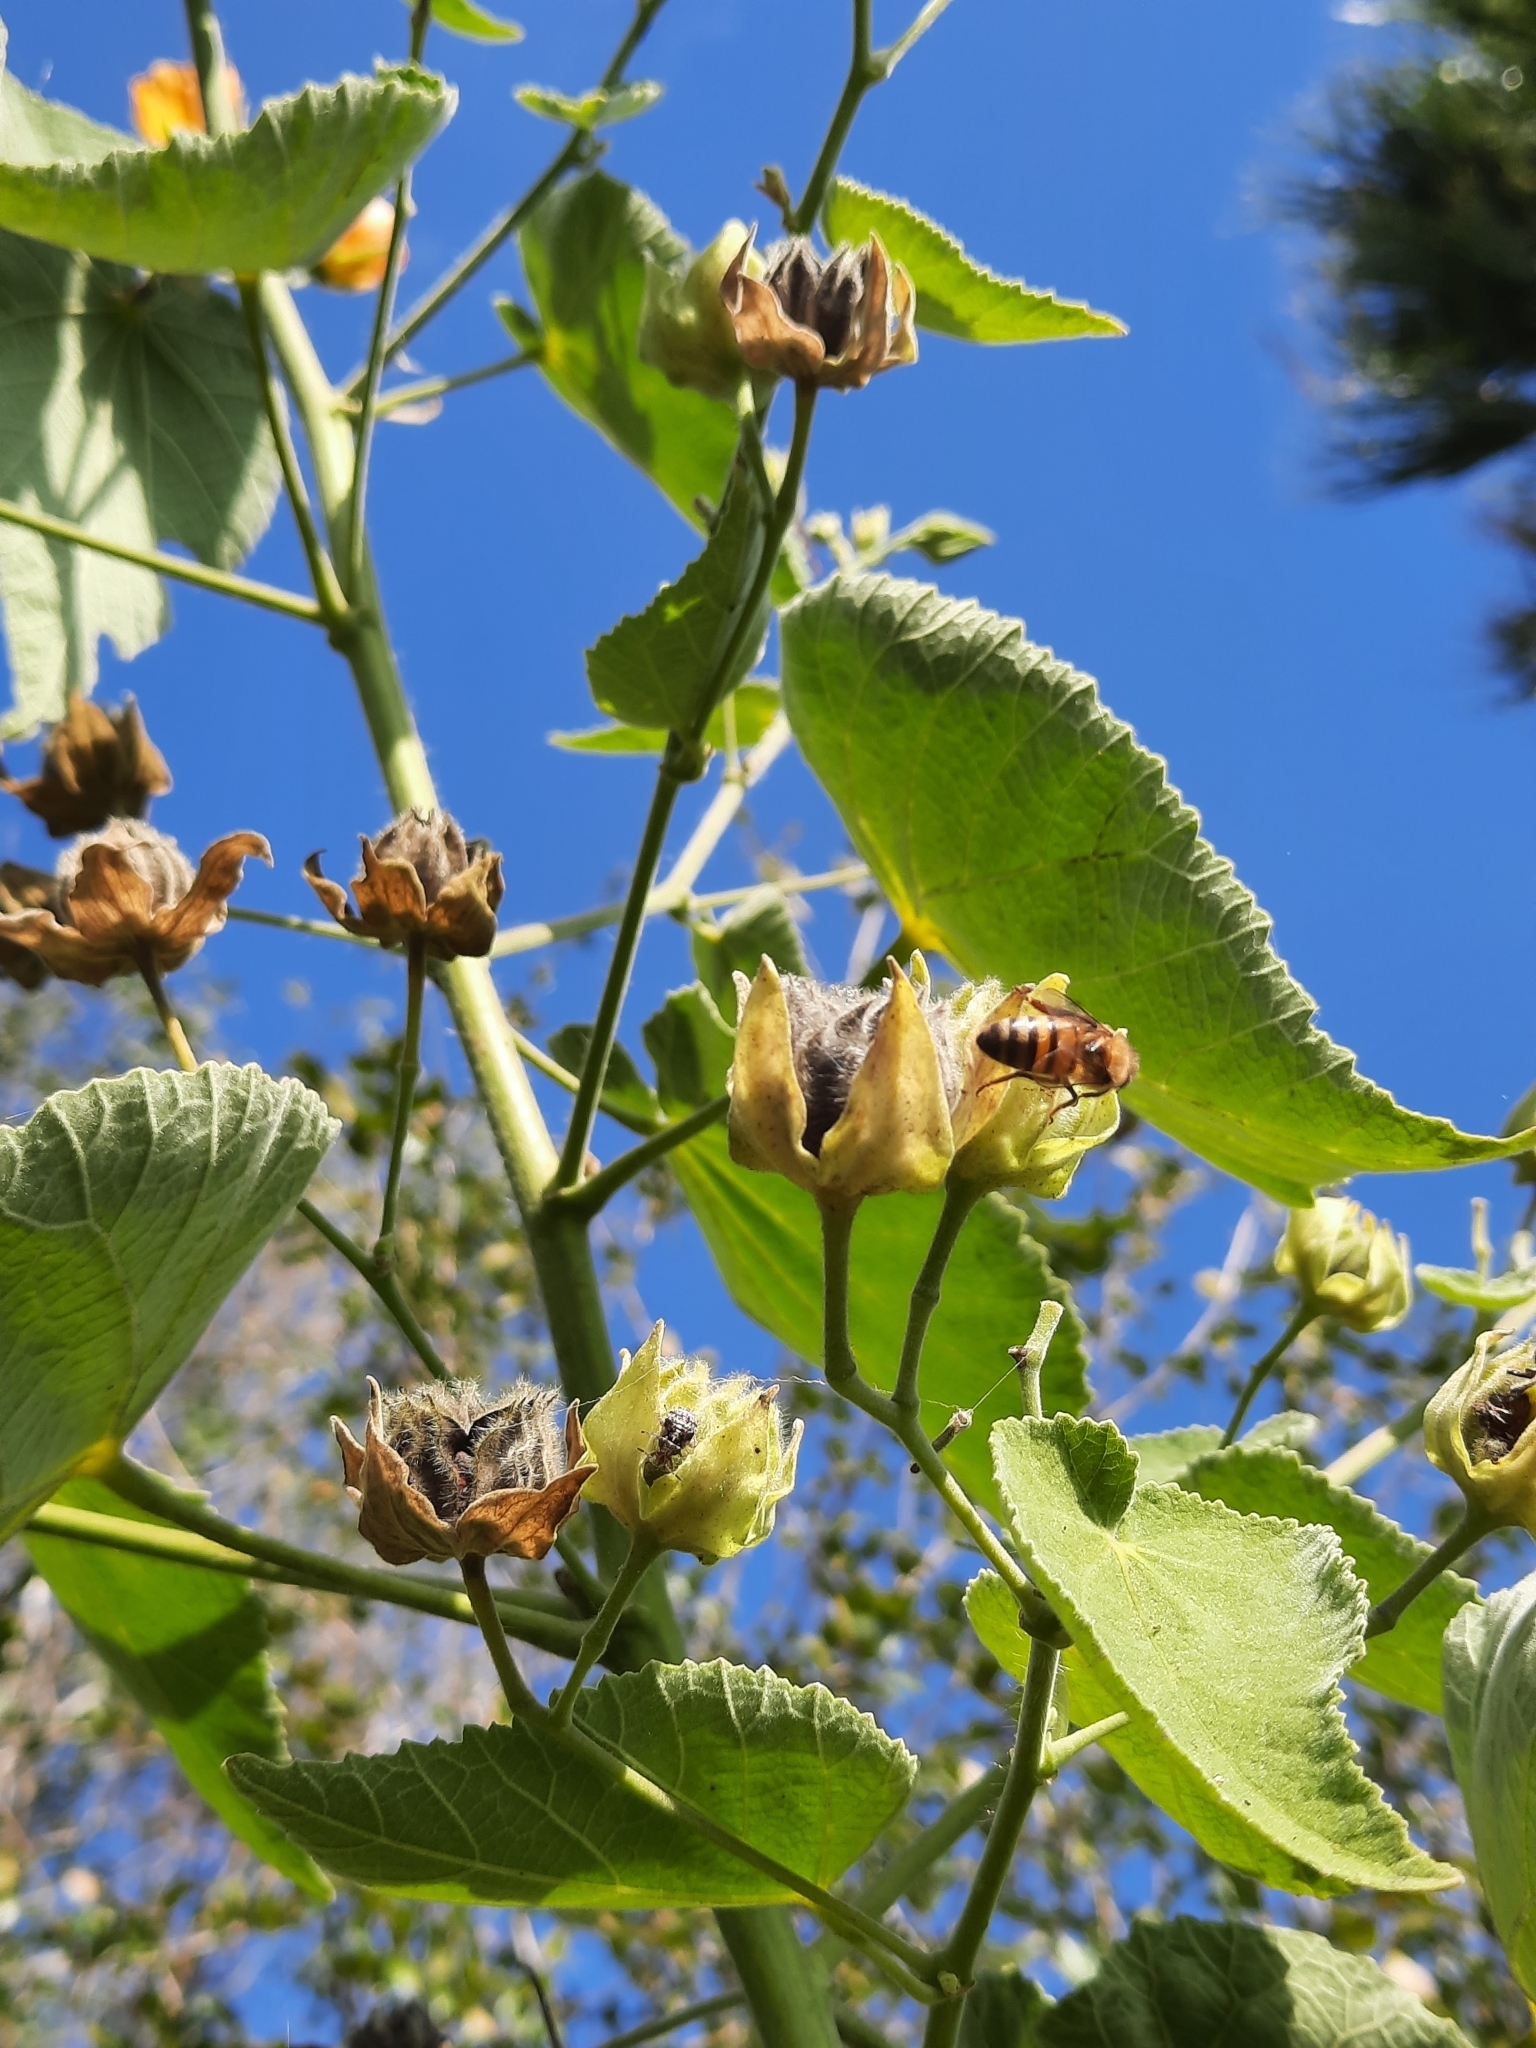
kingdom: Animalia
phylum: Arthropoda
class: Insecta
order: Hymenoptera
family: Apidae
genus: Apis
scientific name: Apis mellifera
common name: Honey bee
